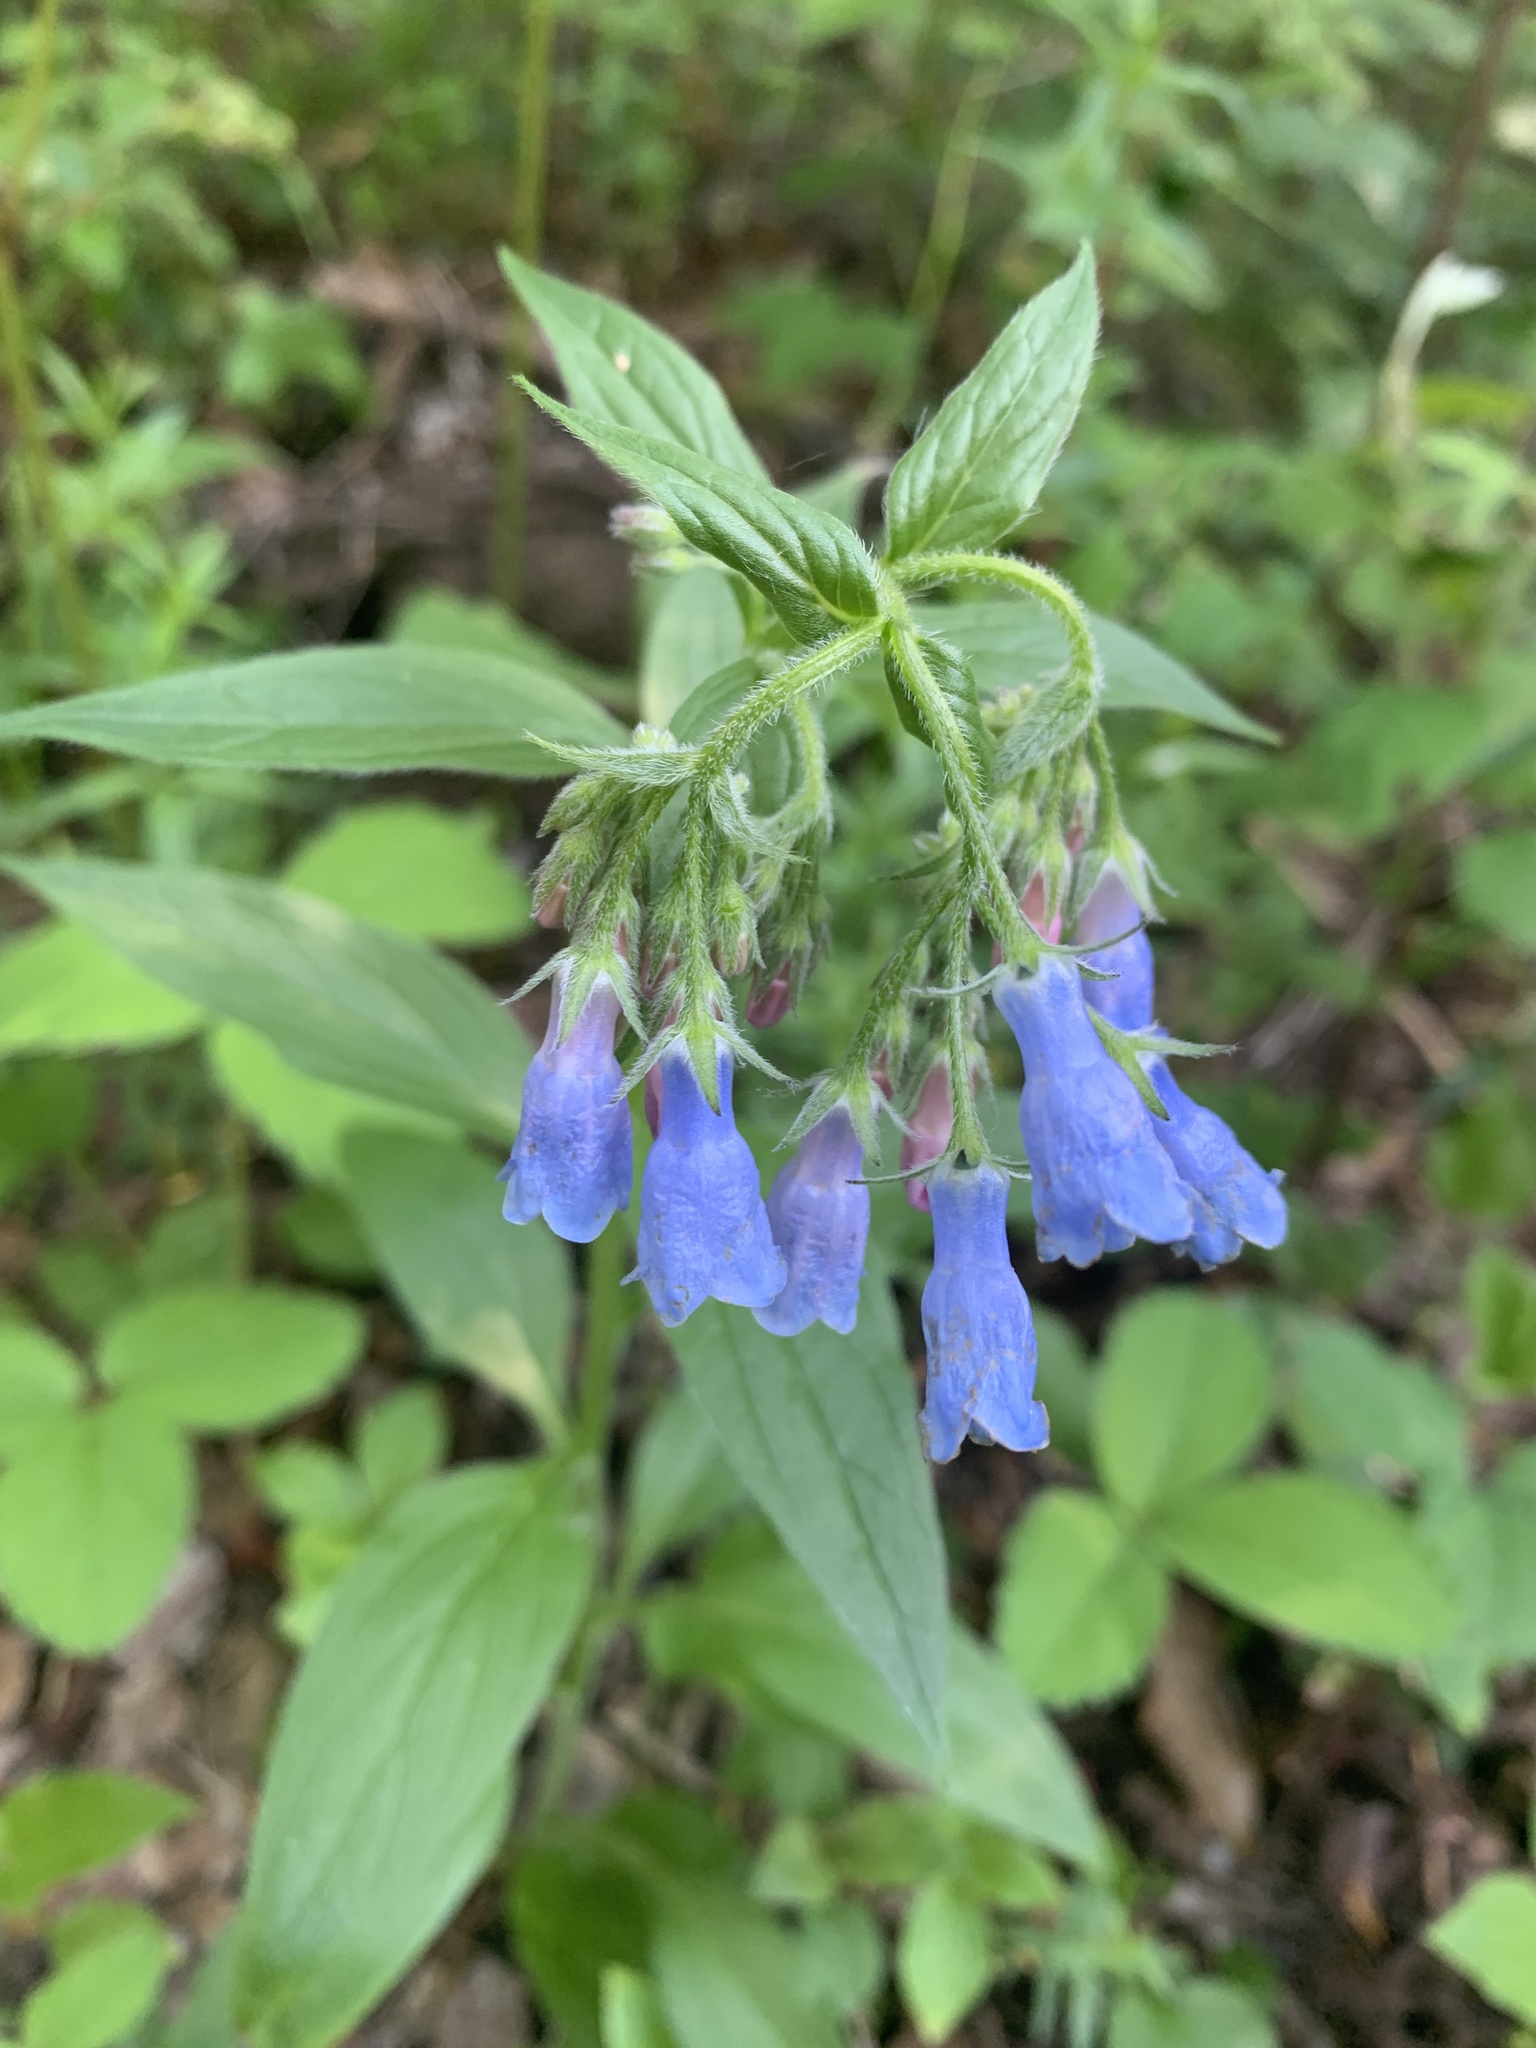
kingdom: Plantae
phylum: Tracheophyta
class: Magnoliopsida
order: Boraginales
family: Boraginaceae
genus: Mertensia
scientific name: Mertensia paniculata
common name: Panicled bluebells
